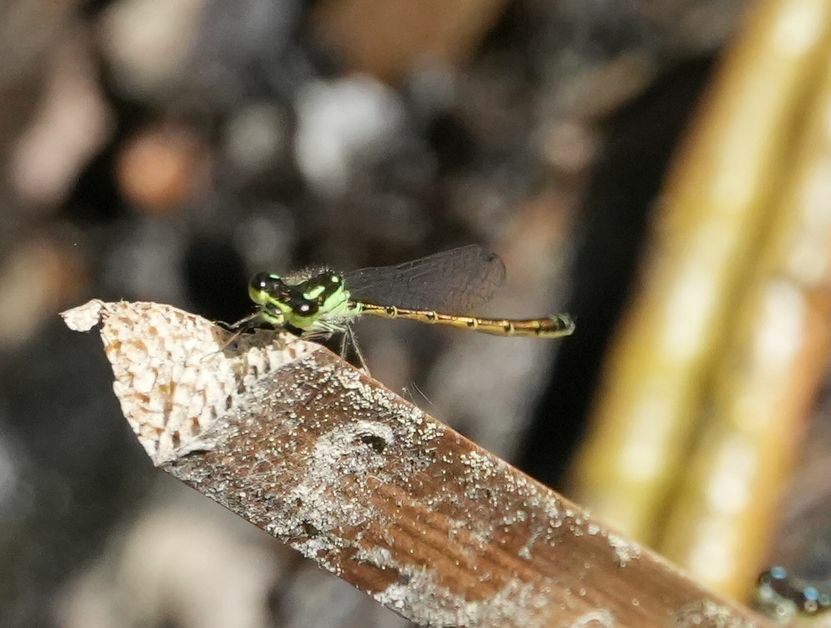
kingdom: Animalia
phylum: Arthropoda
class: Insecta
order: Odonata
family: Coenagrionidae
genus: Ischnura
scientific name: Ischnura posita
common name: Fragile forktail
